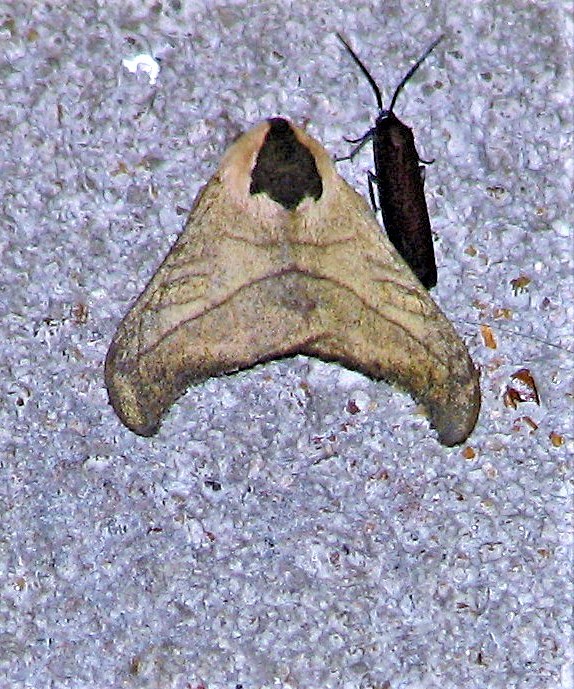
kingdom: Animalia
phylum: Arthropoda
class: Insecta
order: Lepidoptera
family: Saturniidae
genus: Hylesia
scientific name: Hylesia scortina
